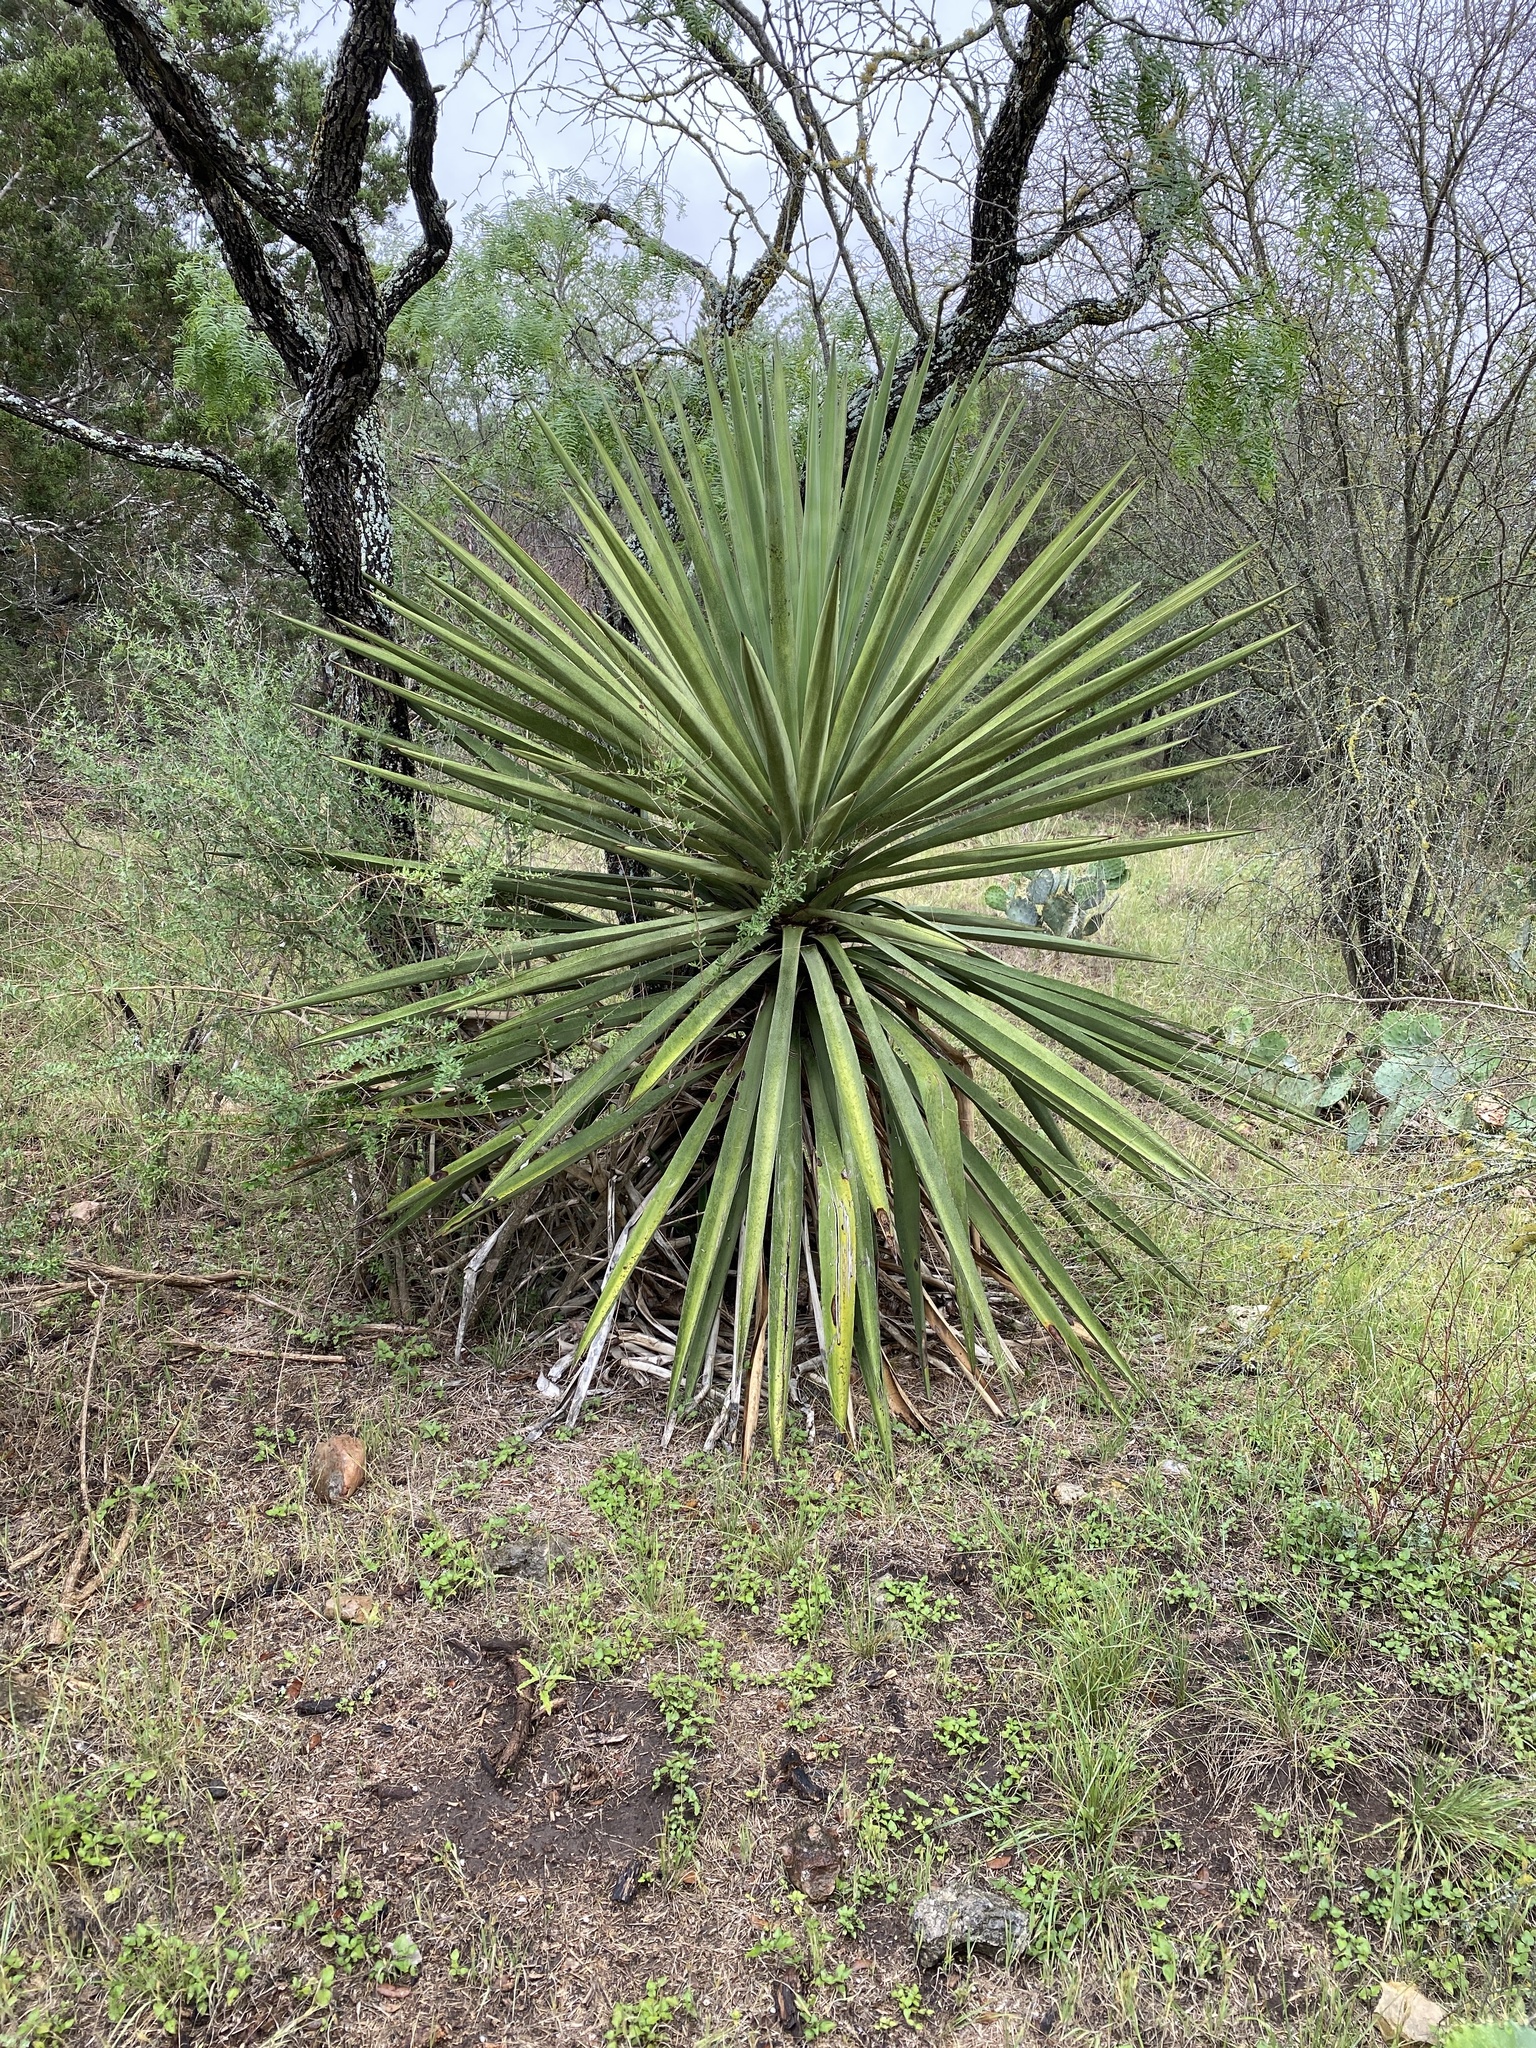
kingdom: Plantae
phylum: Tracheophyta
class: Liliopsida
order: Asparagales
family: Asparagaceae
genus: Yucca
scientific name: Yucca treculiana
